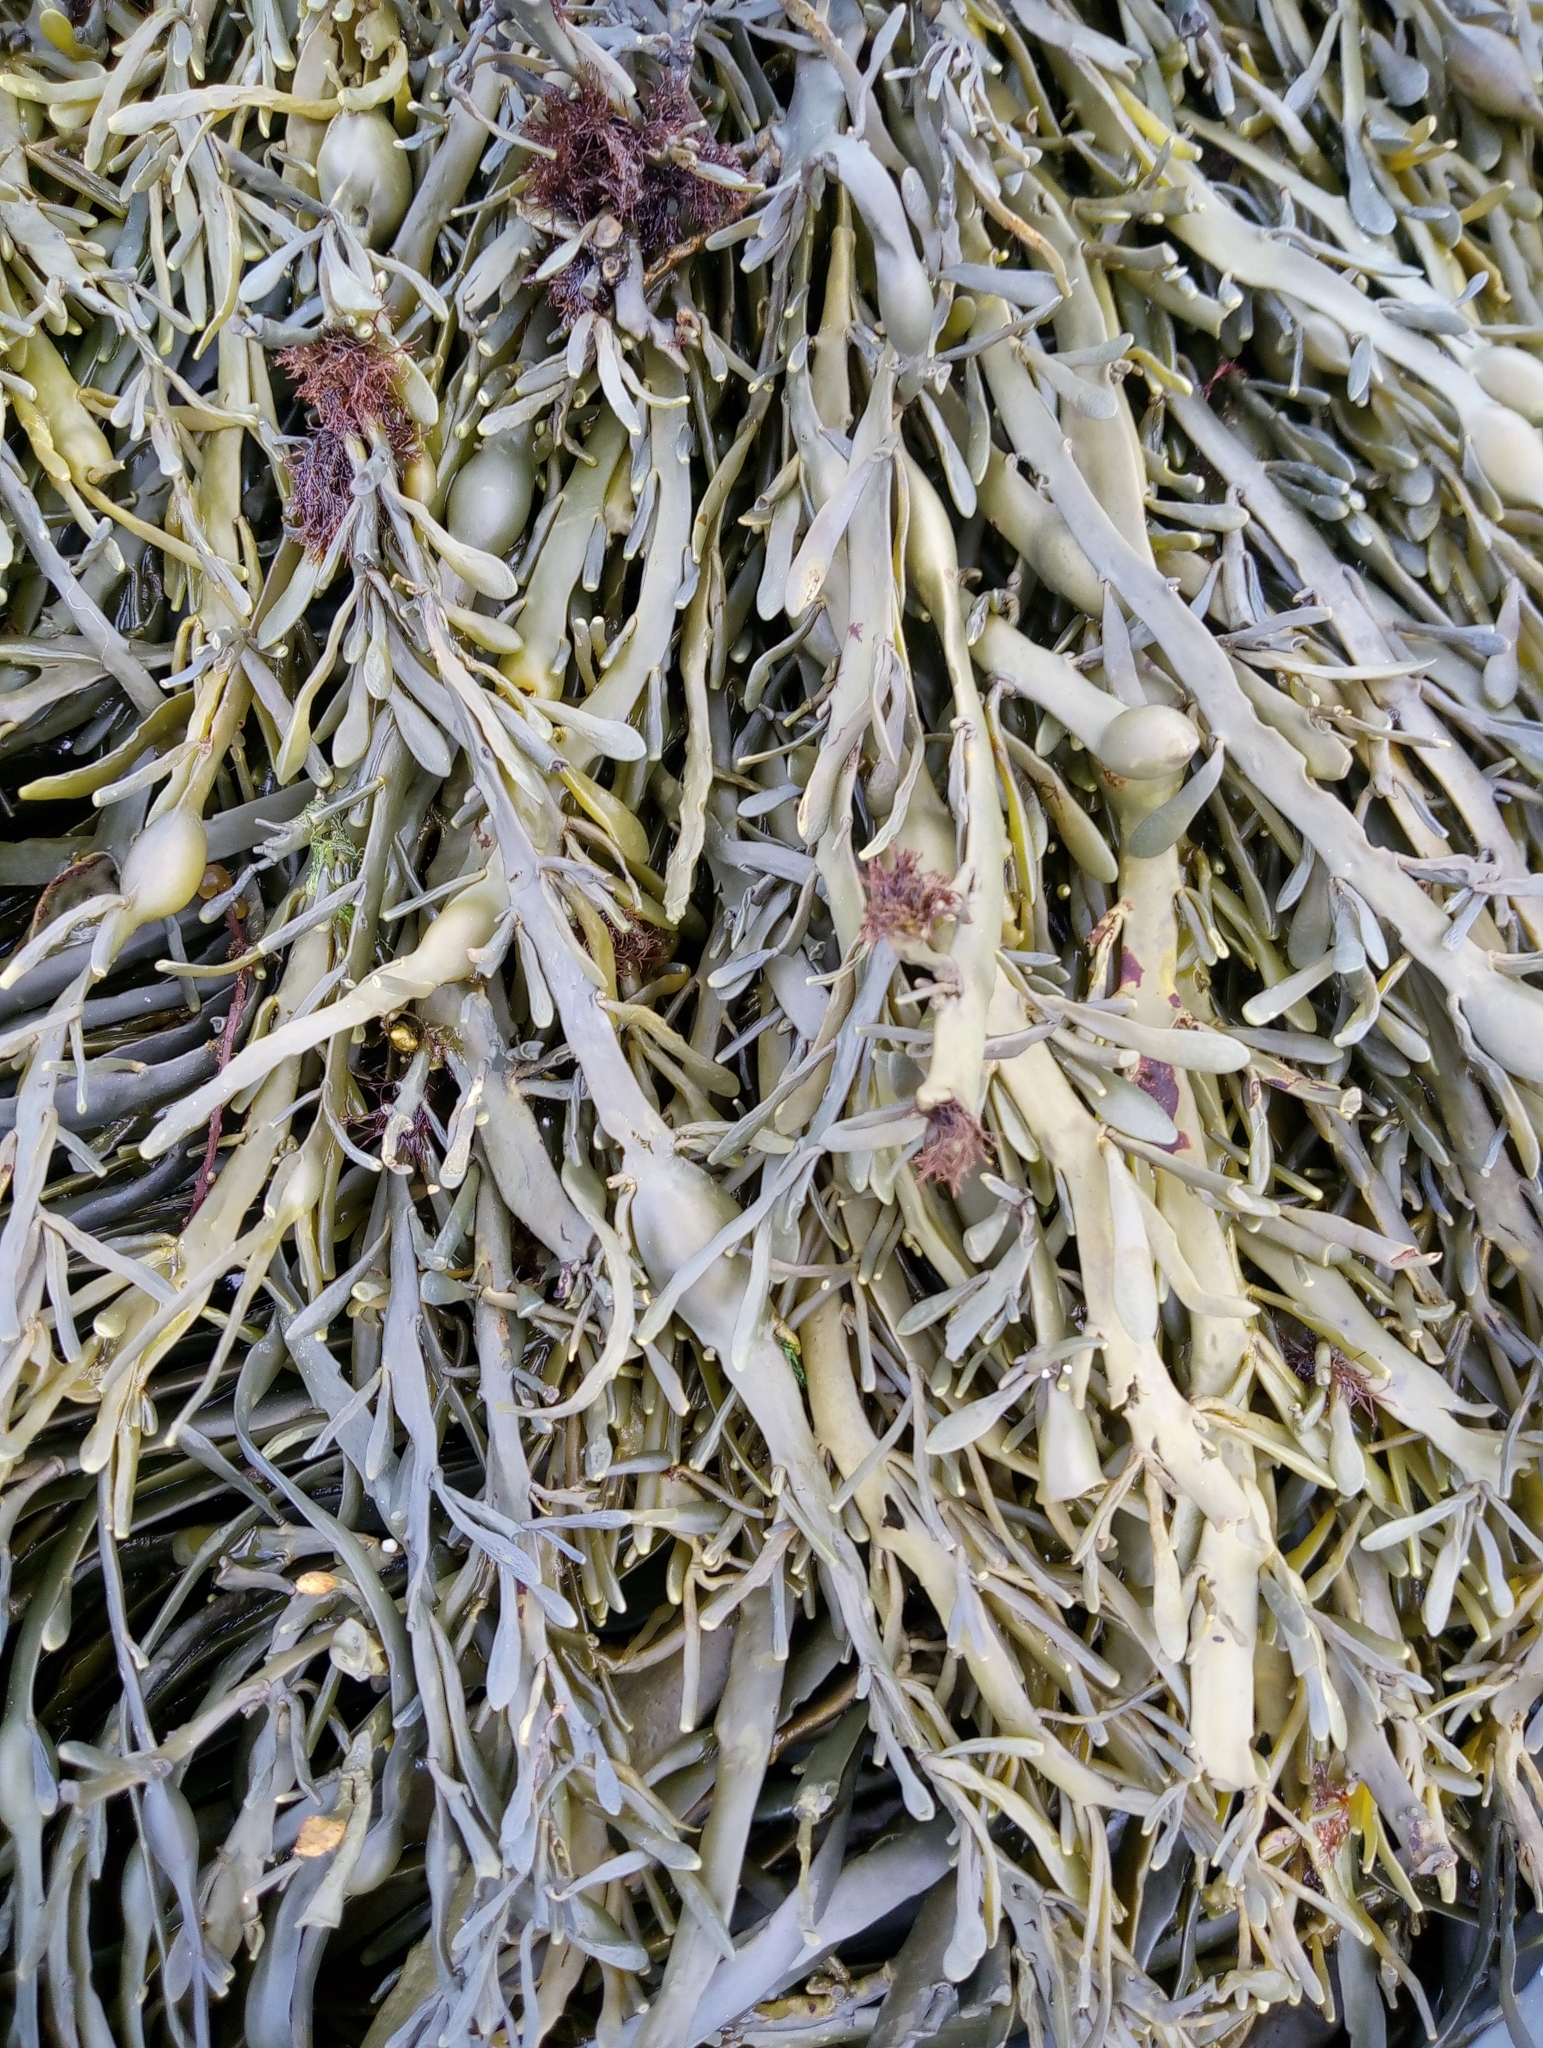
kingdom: Chromista
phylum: Ochrophyta
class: Phaeophyceae
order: Fucales
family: Fucaceae
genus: Ascophyllum
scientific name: Ascophyllum nodosum
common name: Knotted wrack
